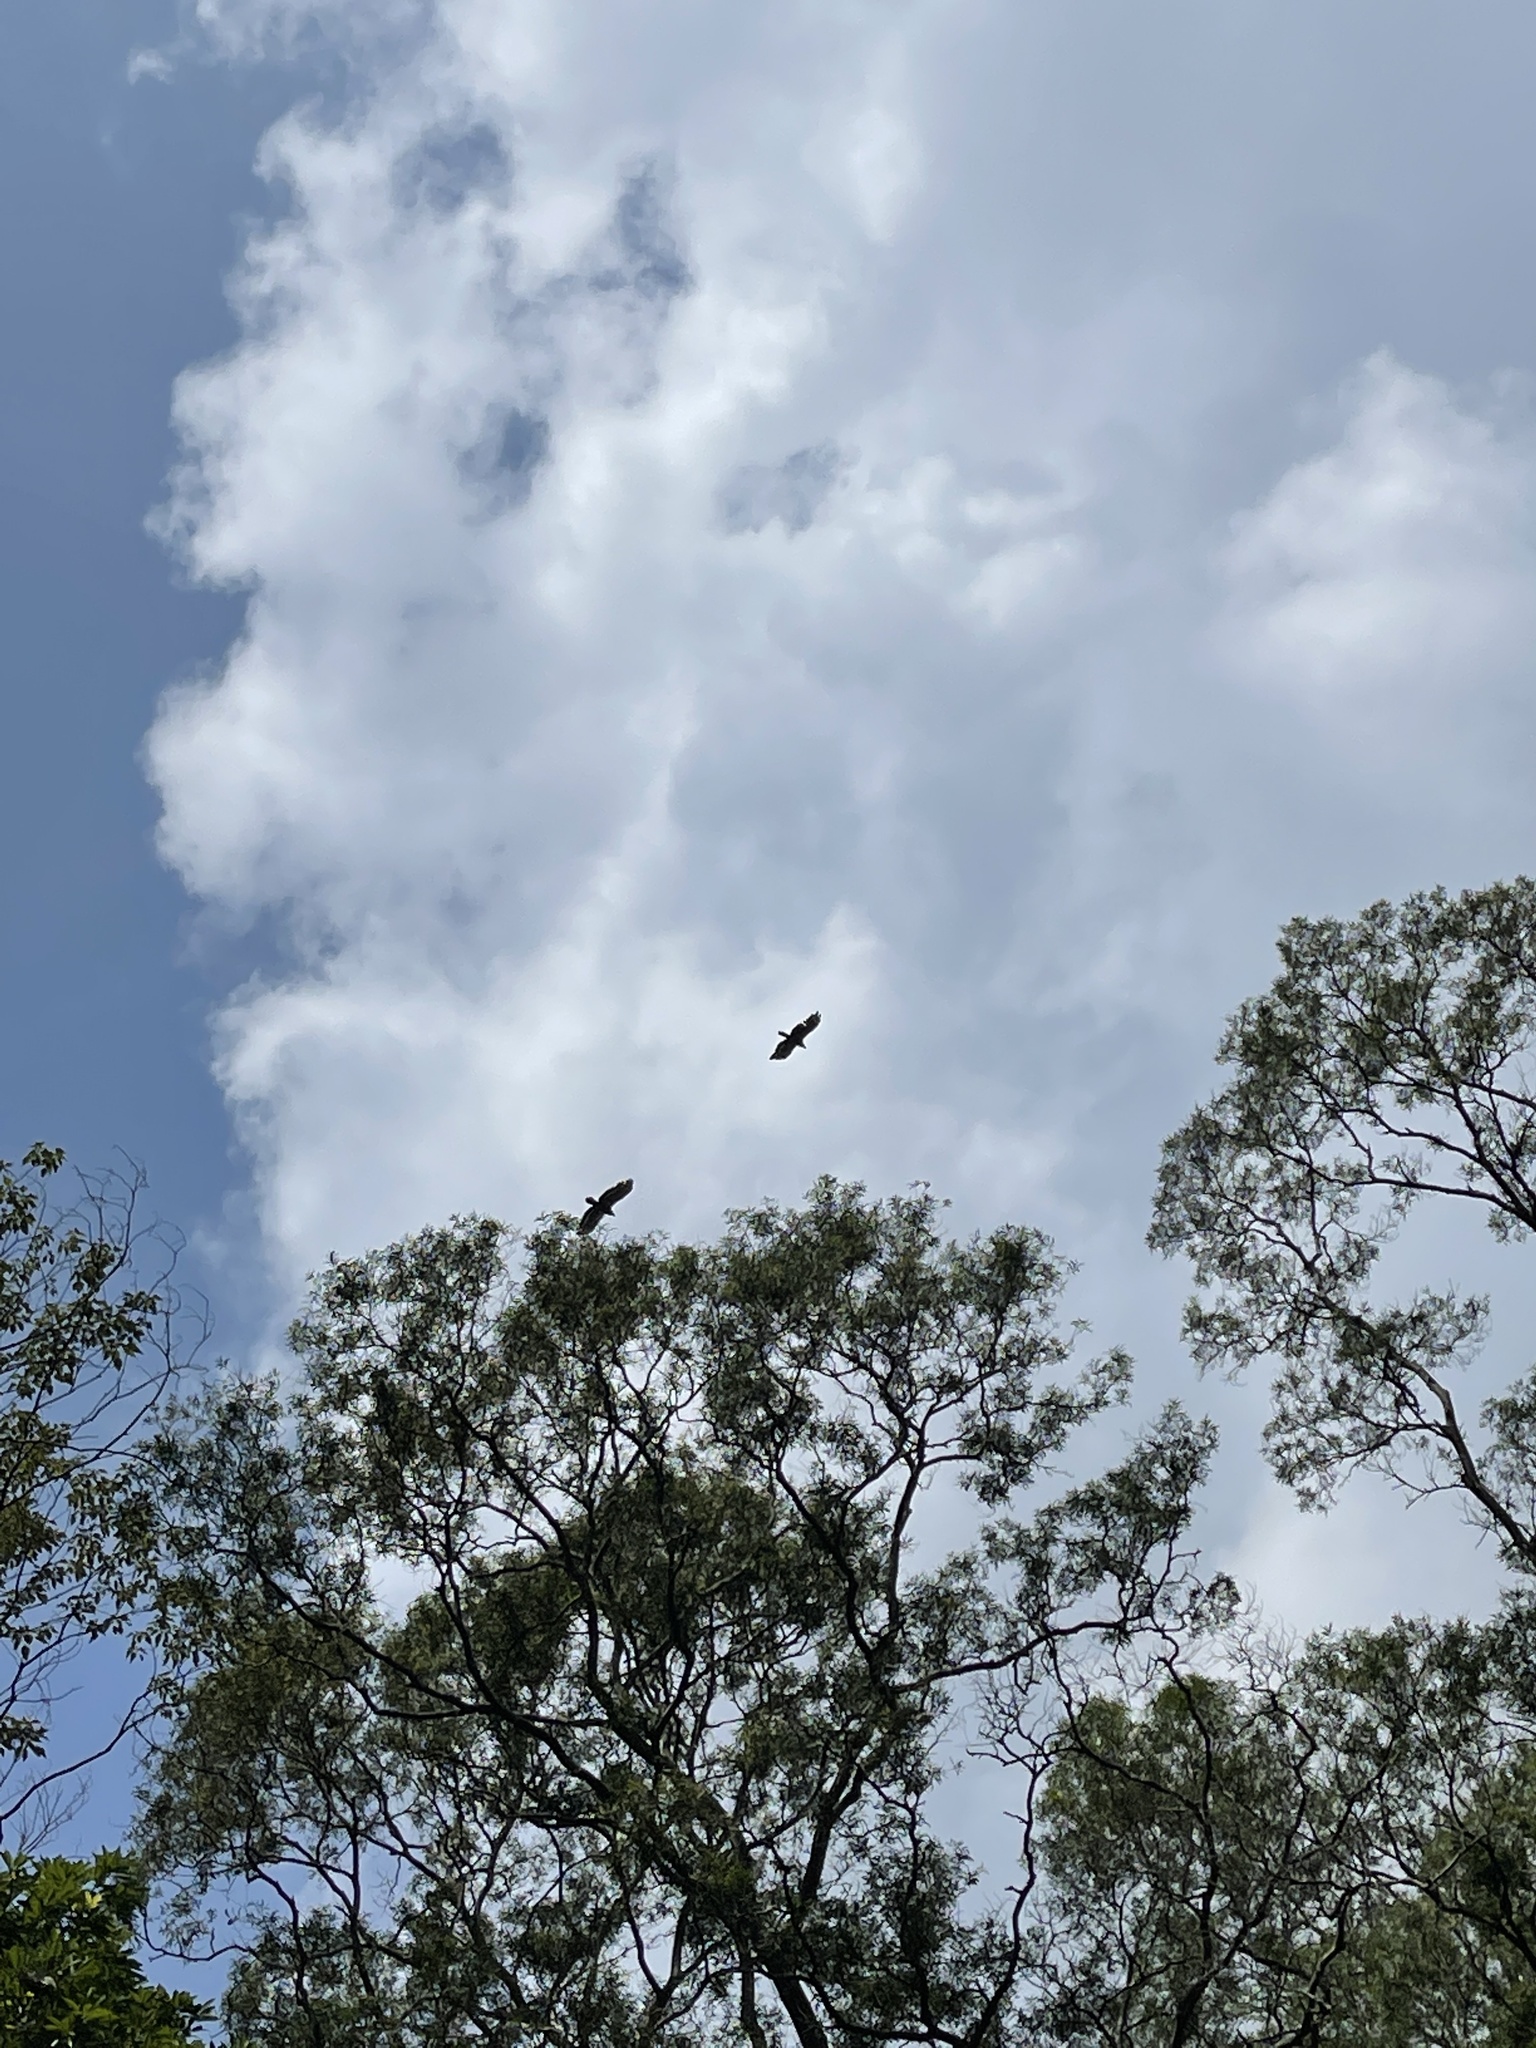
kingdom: Animalia
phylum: Chordata
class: Aves
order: Accipitriformes
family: Accipitridae
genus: Spilornis
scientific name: Spilornis cheela
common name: Crested serpent eagle
